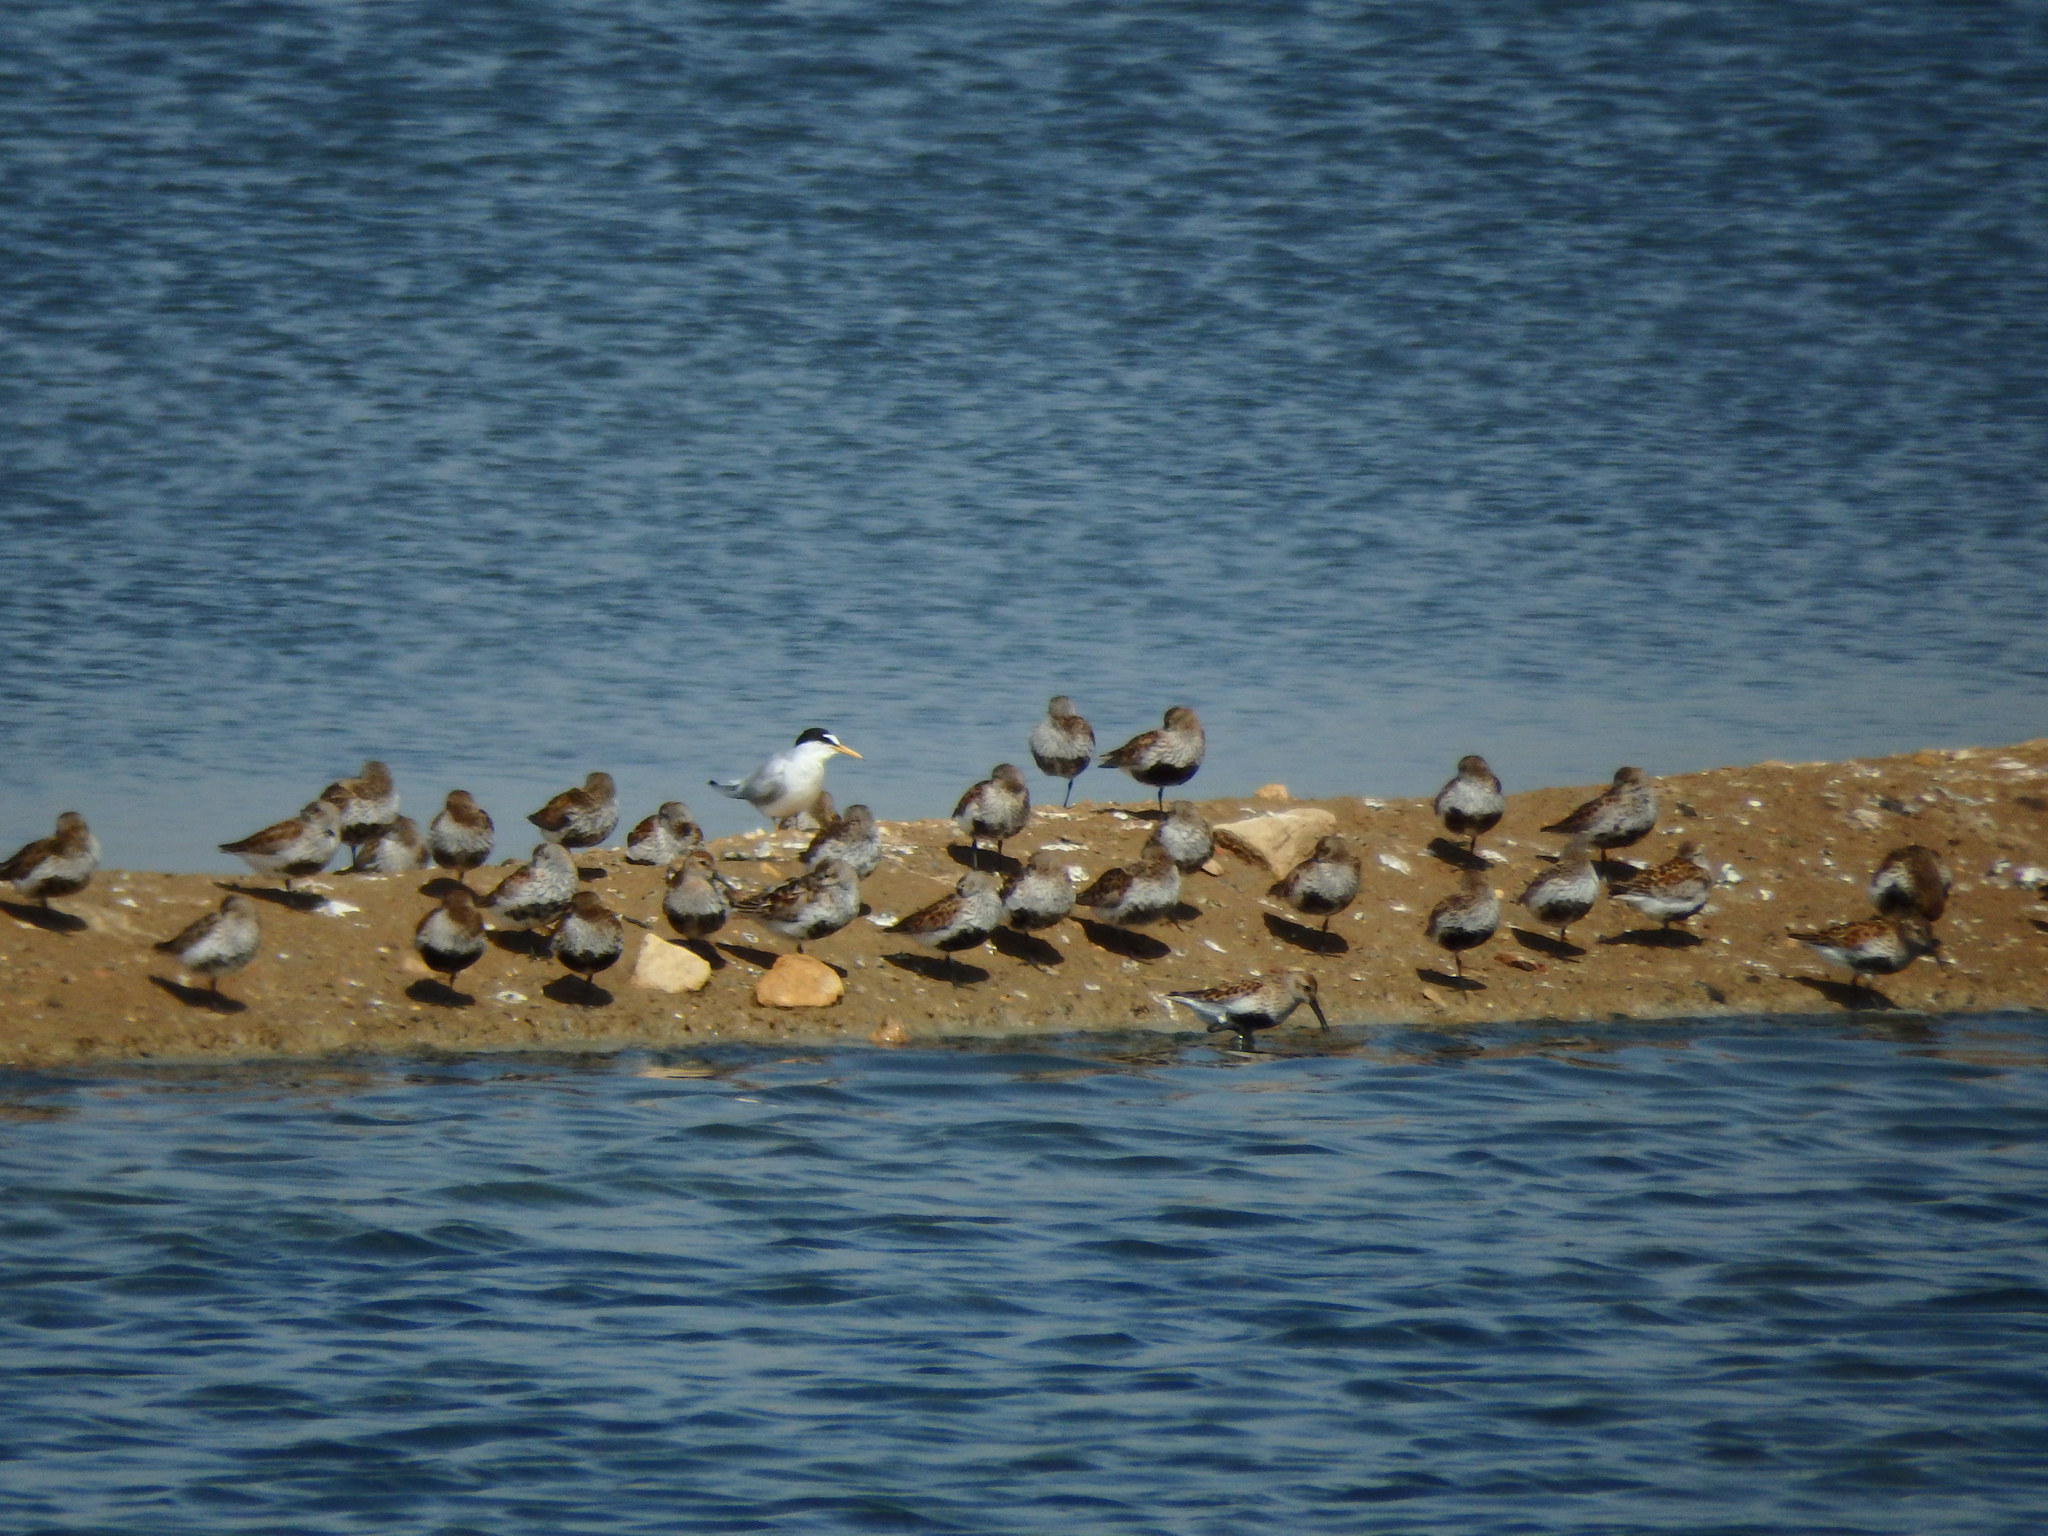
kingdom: Animalia
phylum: Chordata
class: Aves
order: Charadriiformes
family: Laridae
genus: Sternula
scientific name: Sternula albifrons
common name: Little tern
